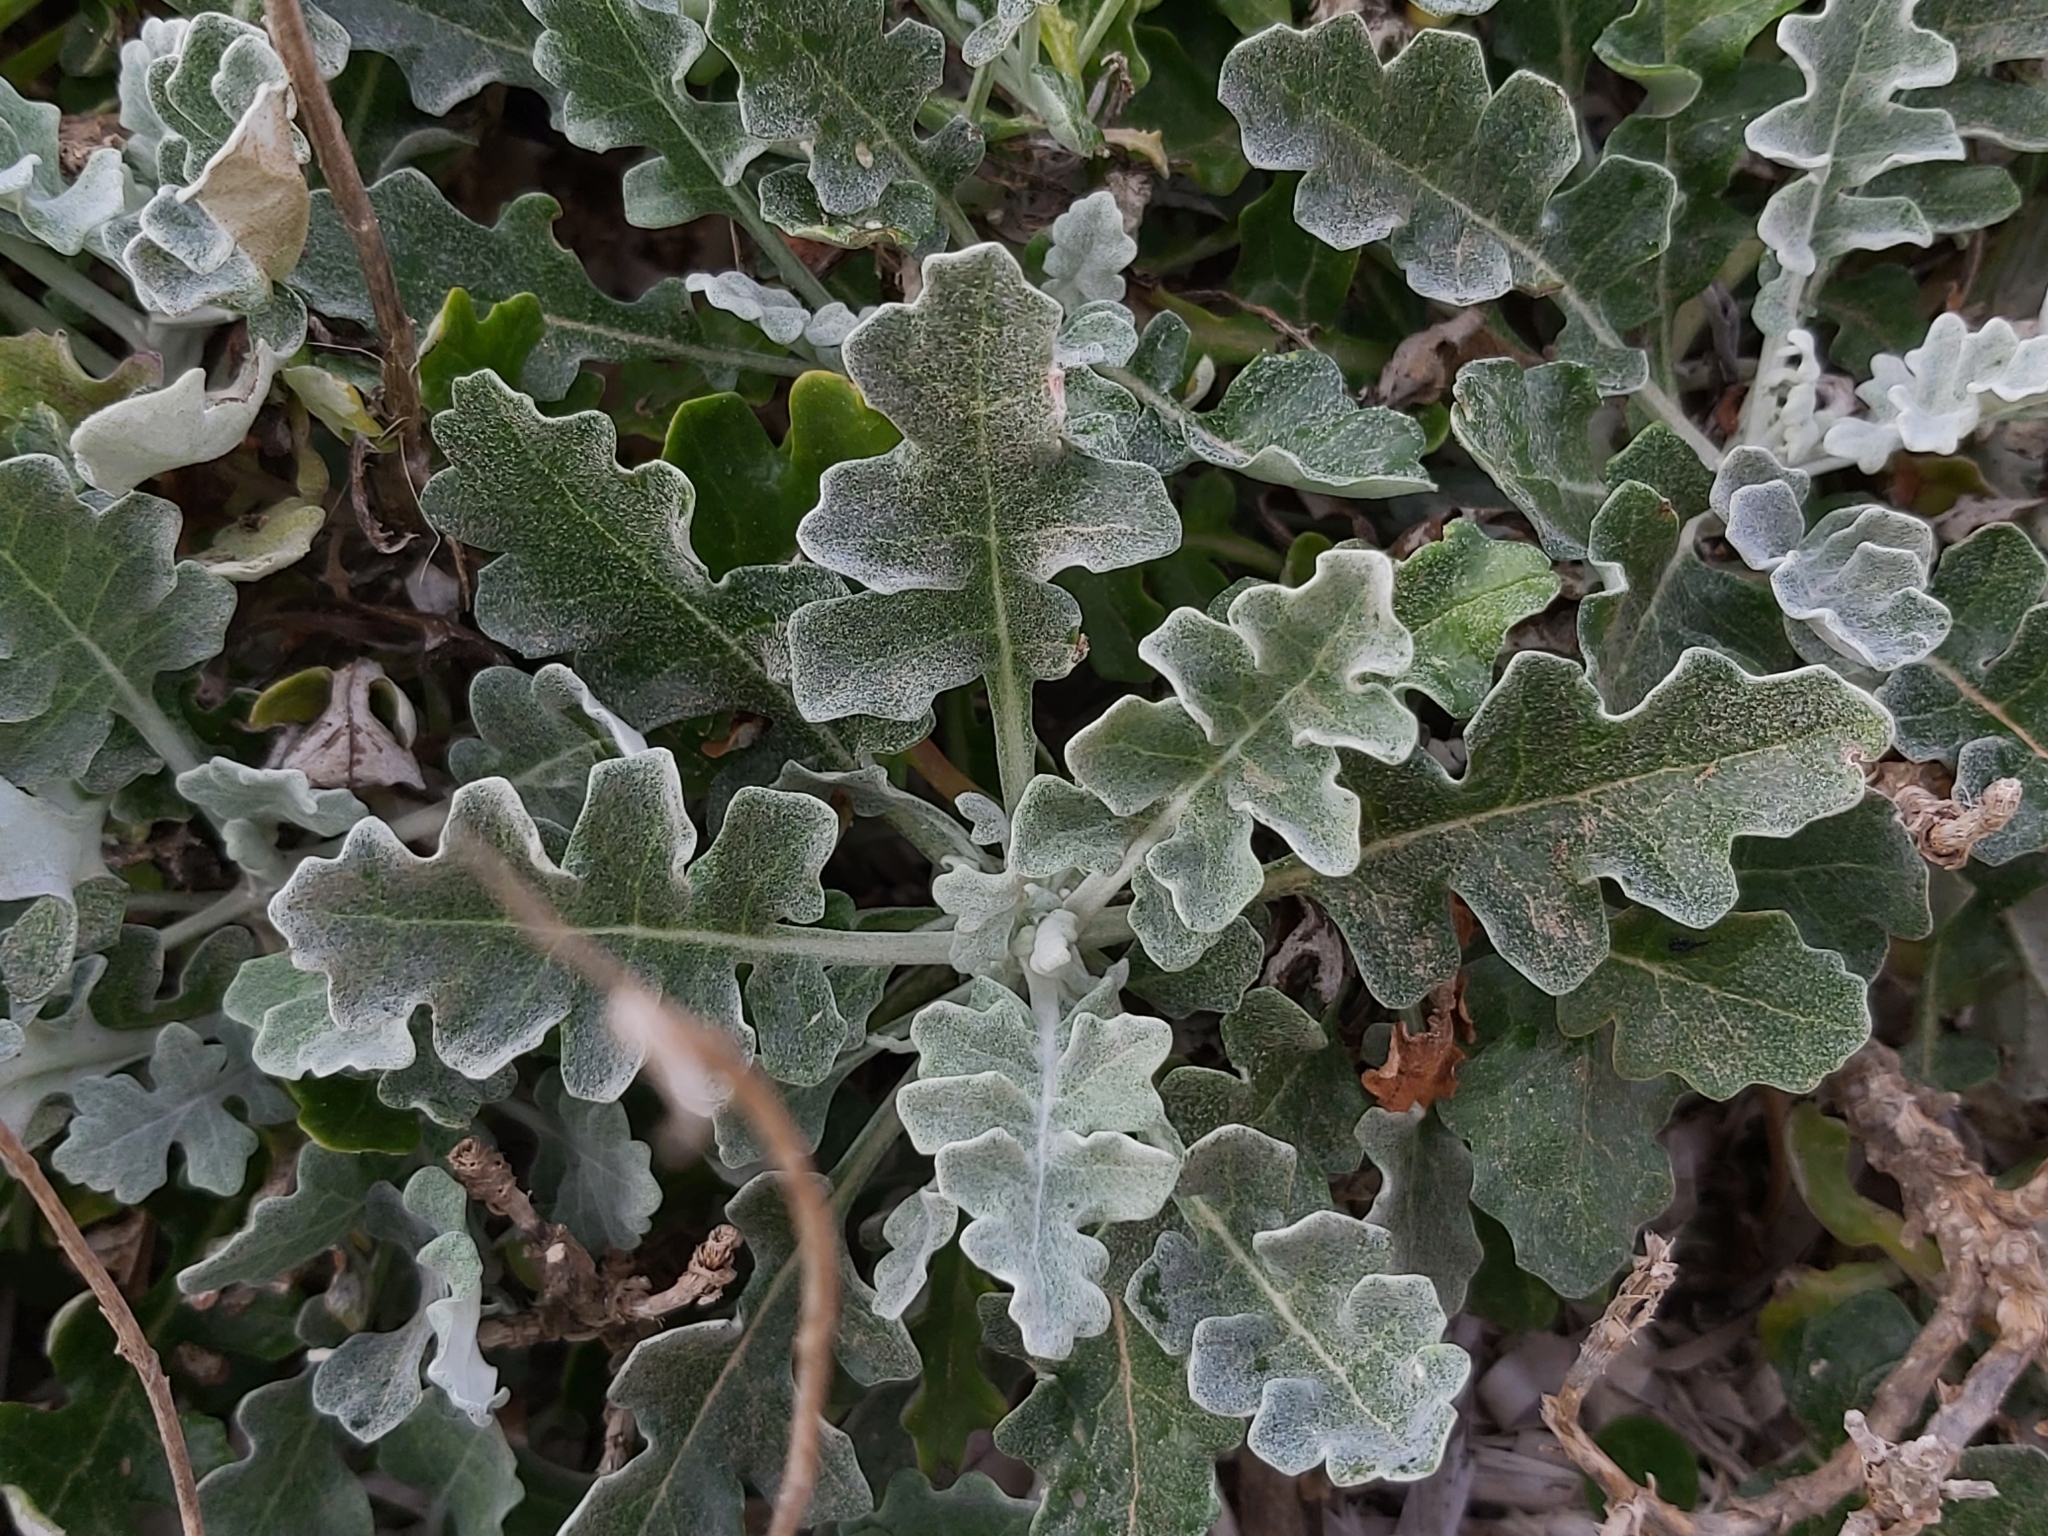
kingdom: Plantae
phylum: Tracheophyta
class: Magnoliopsida
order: Asterales
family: Asteraceae
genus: Jacobaea
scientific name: Jacobaea maritima
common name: Silver ragwort
